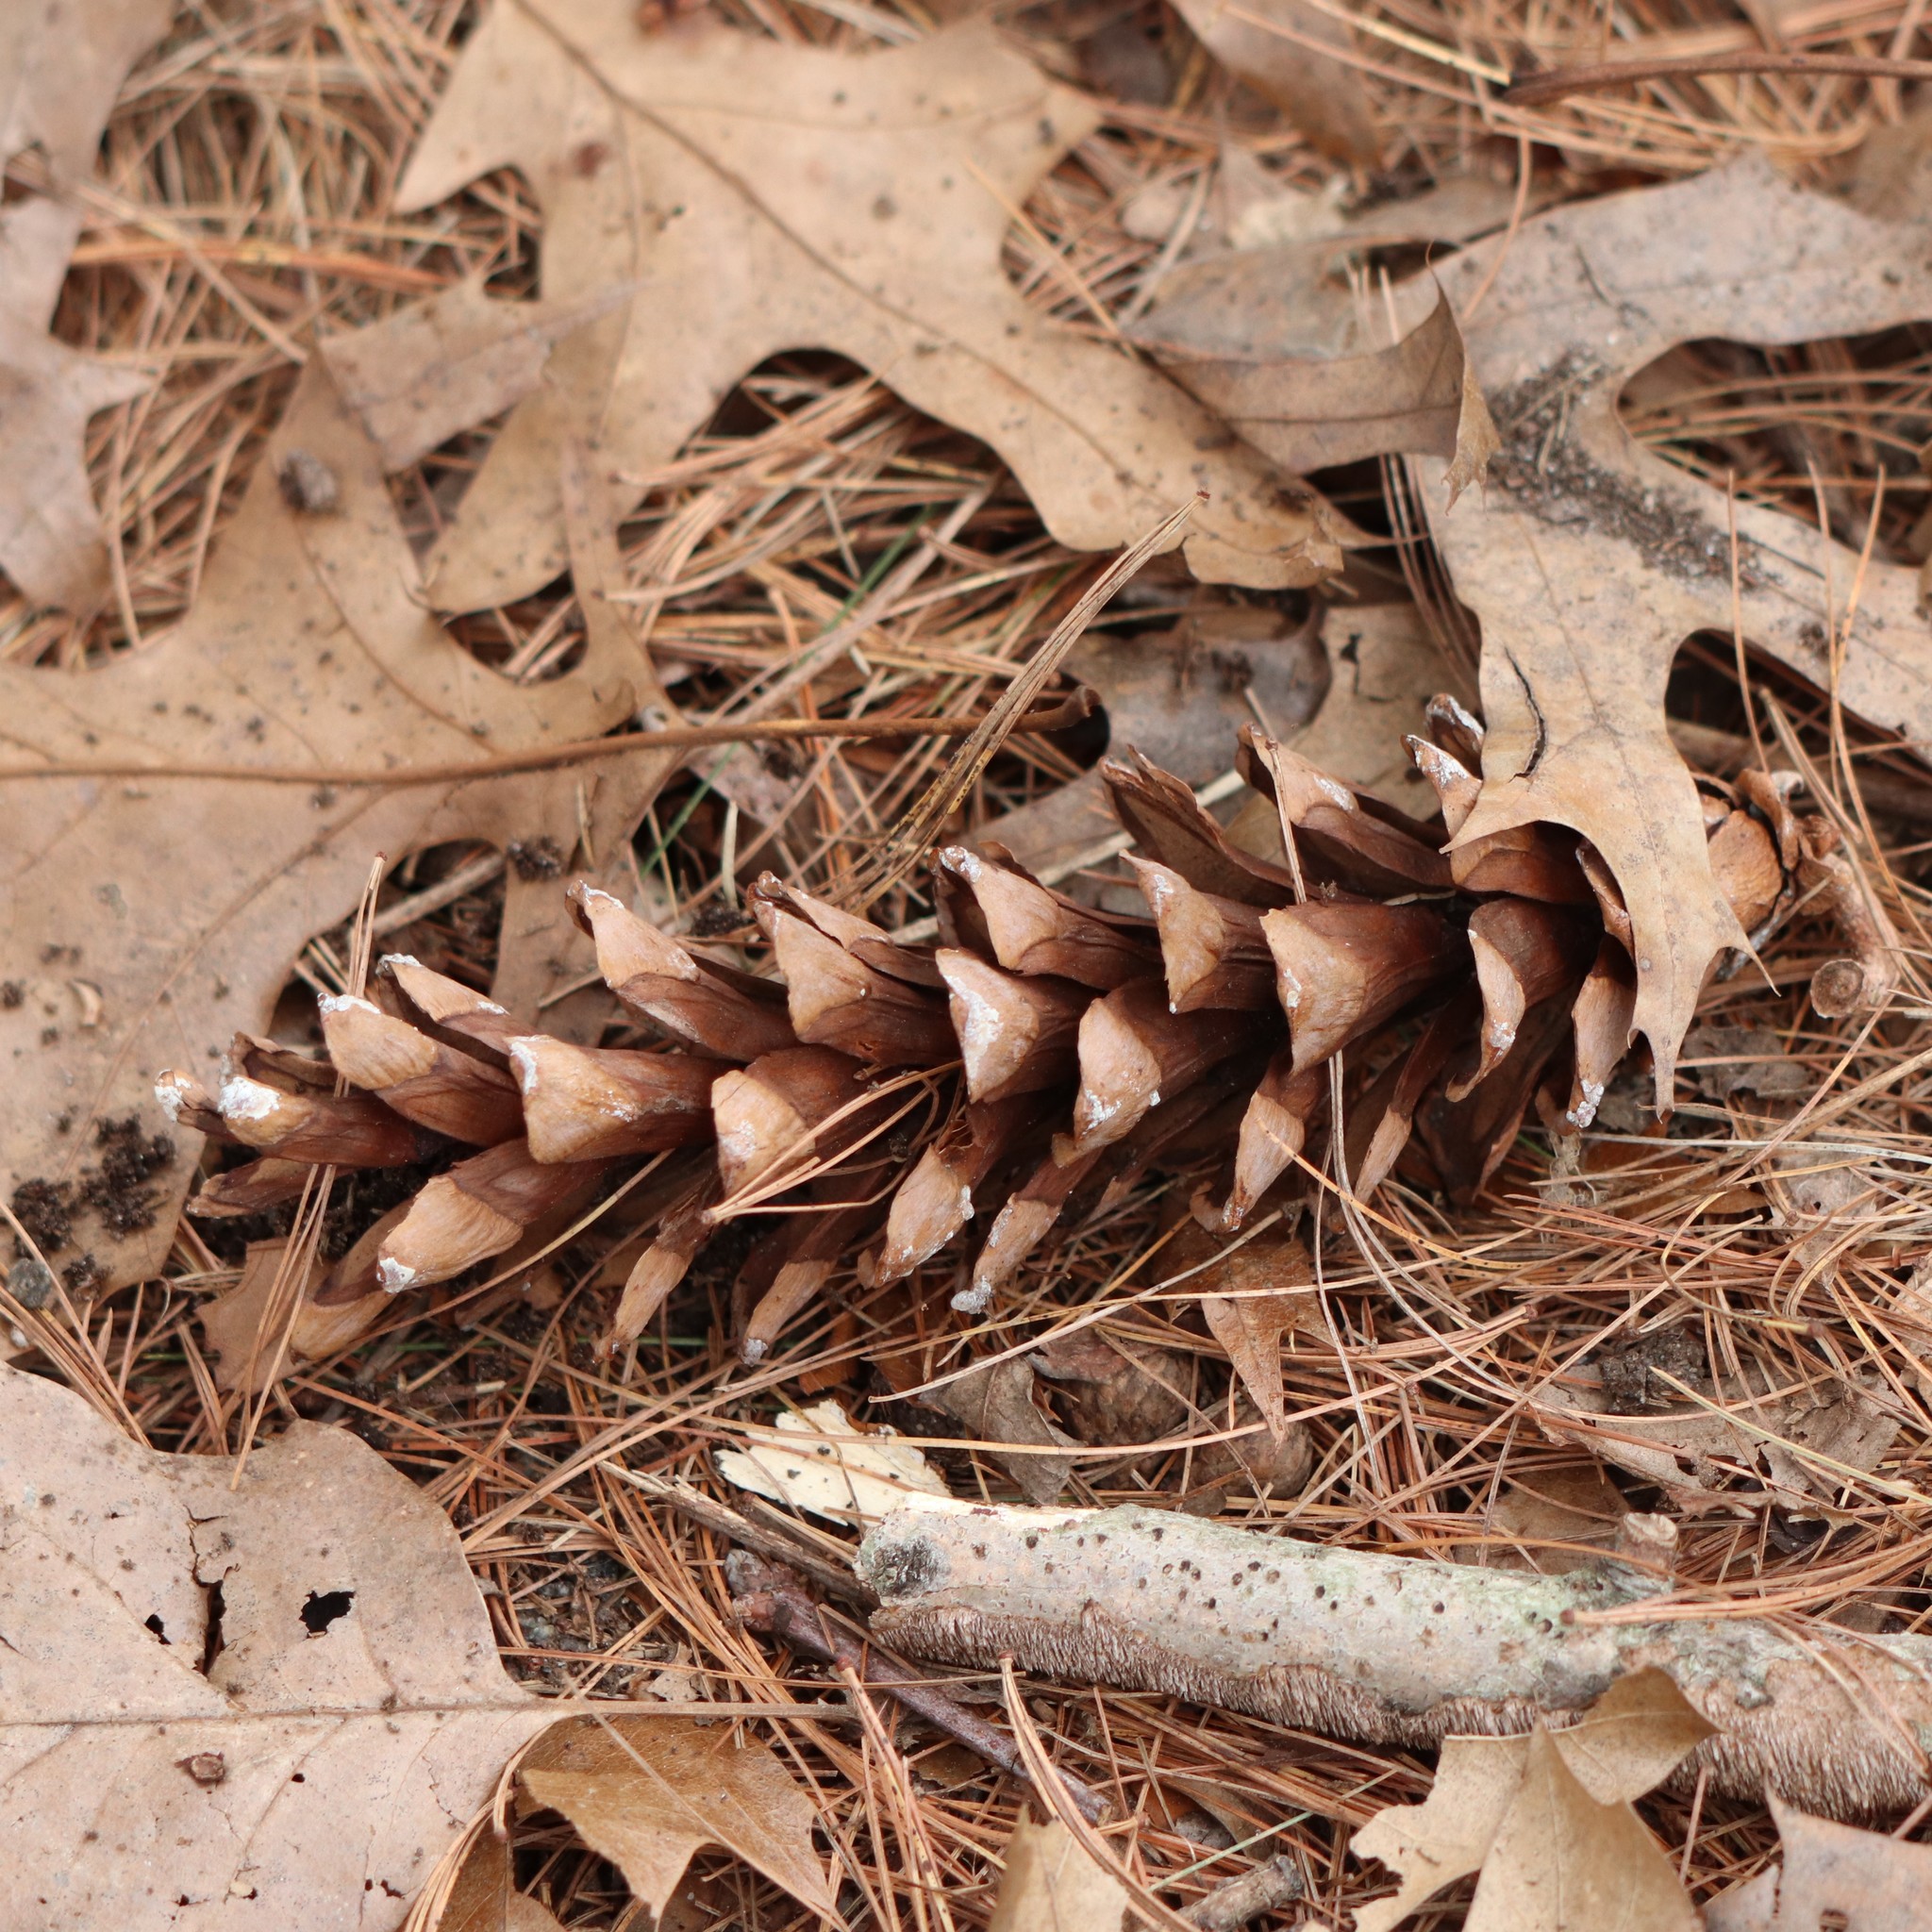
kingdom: Plantae
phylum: Tracheophyta
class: Pinopsida
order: Pinales
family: Pinaceae
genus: Pinus
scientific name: Pinus strobus
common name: Weymouth pine
